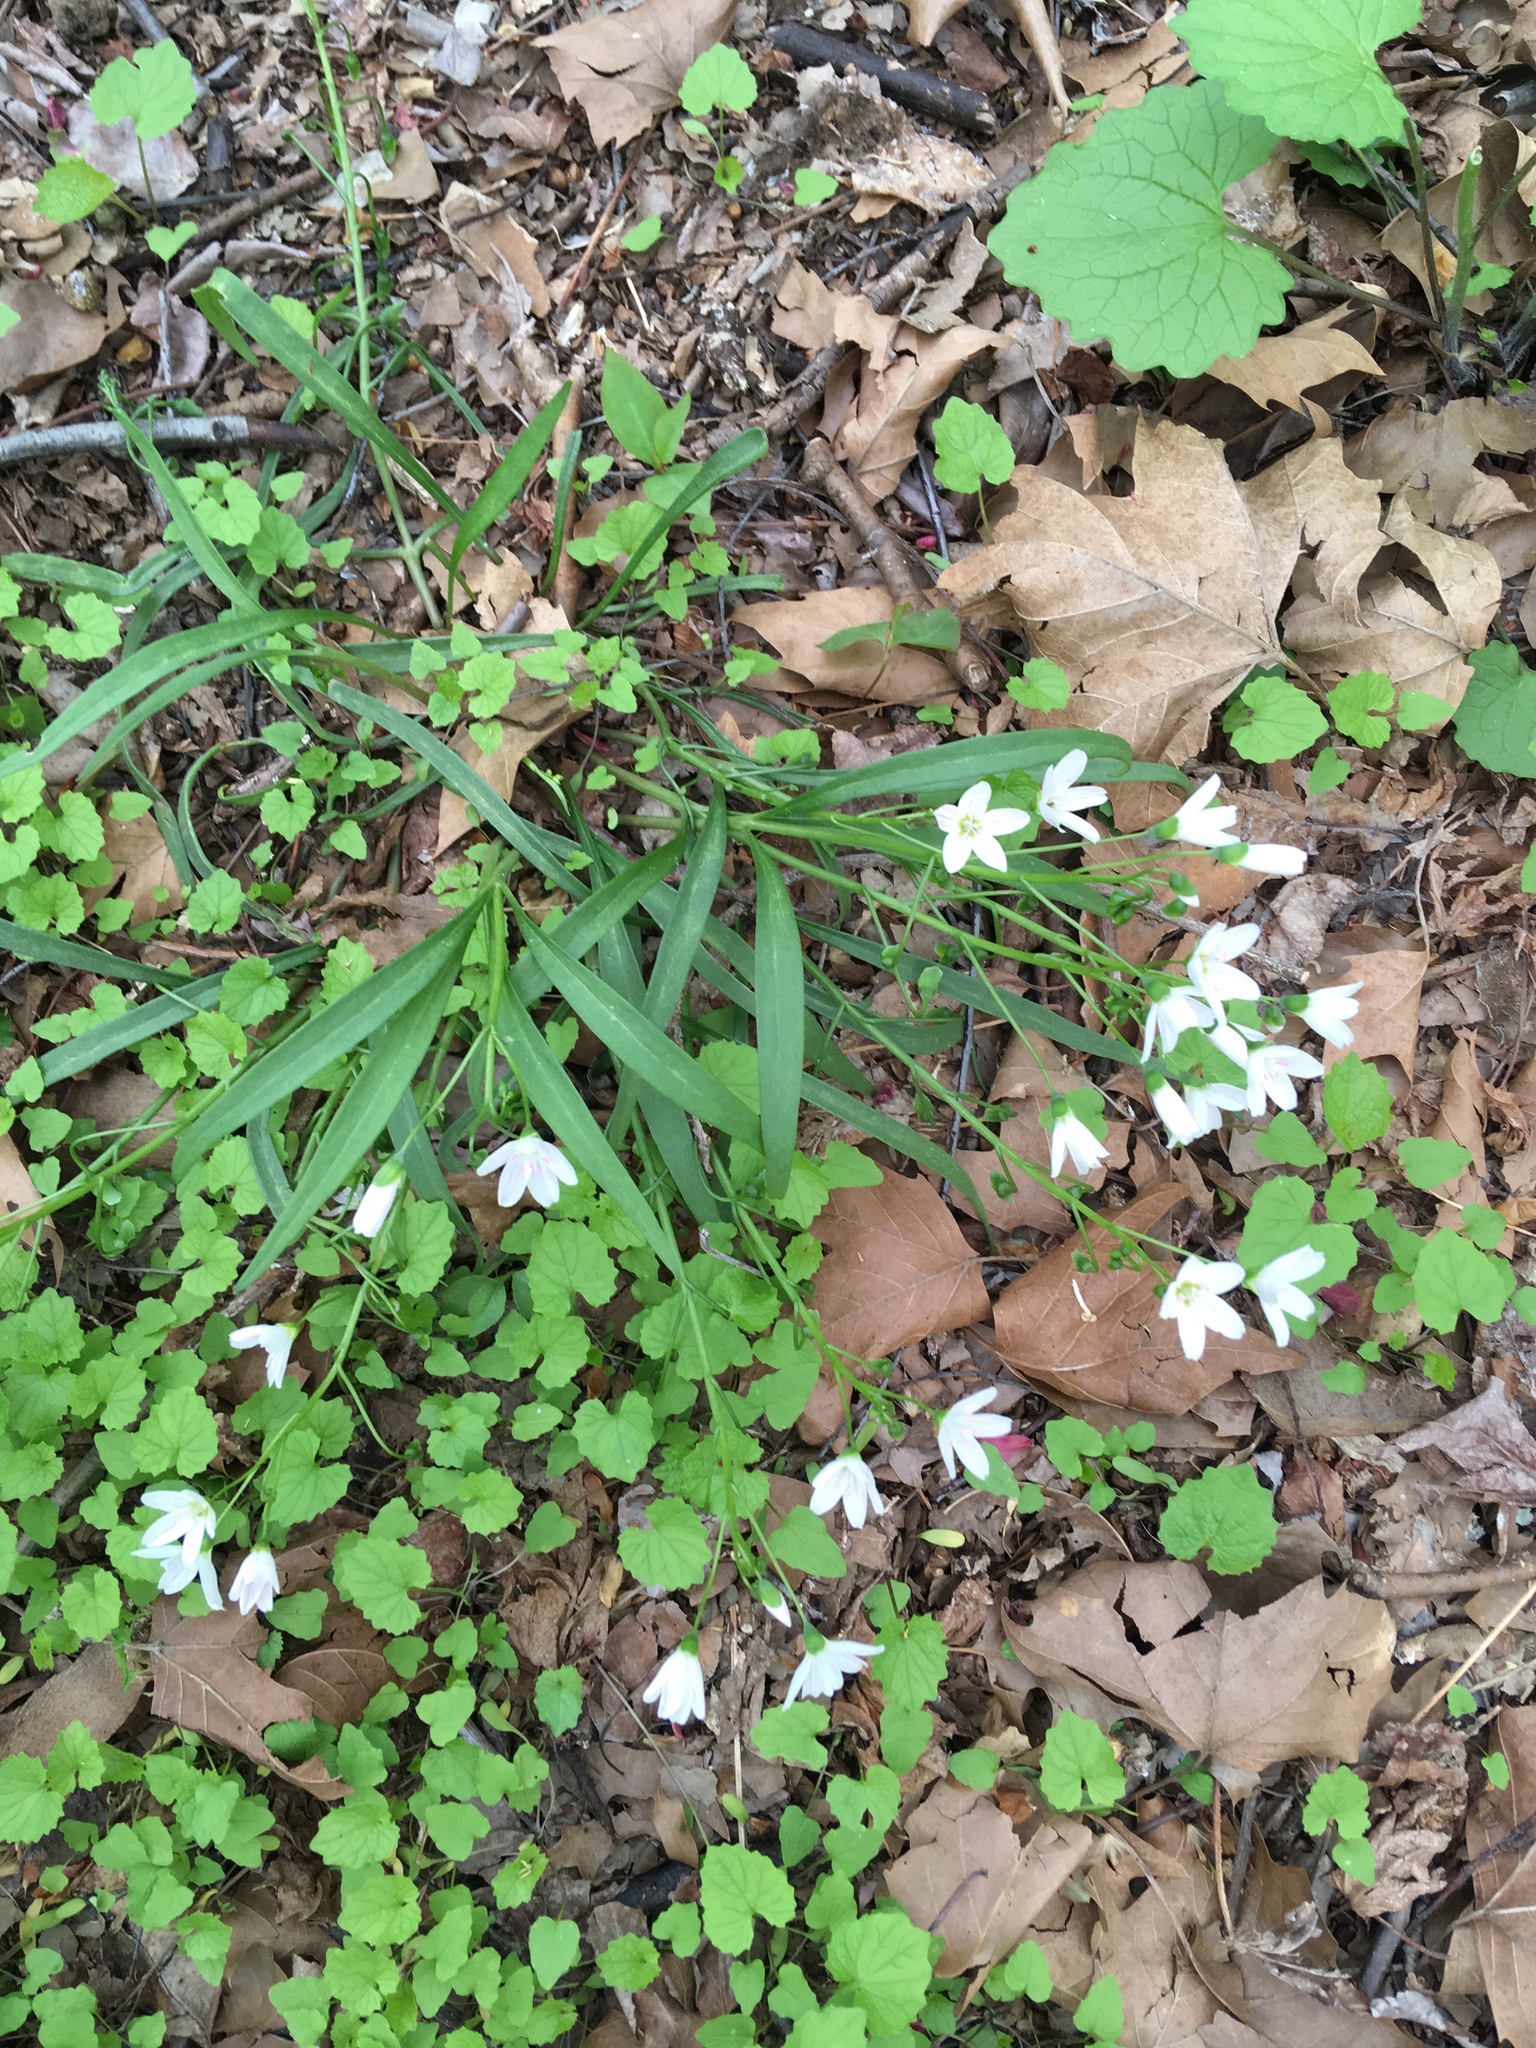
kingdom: Plantae
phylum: Tracheophyta
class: Magnoliopsida
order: Caryophyllales
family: Montiaceae
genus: Claytonia
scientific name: Claytonia virginica
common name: Virginia springbeauty
